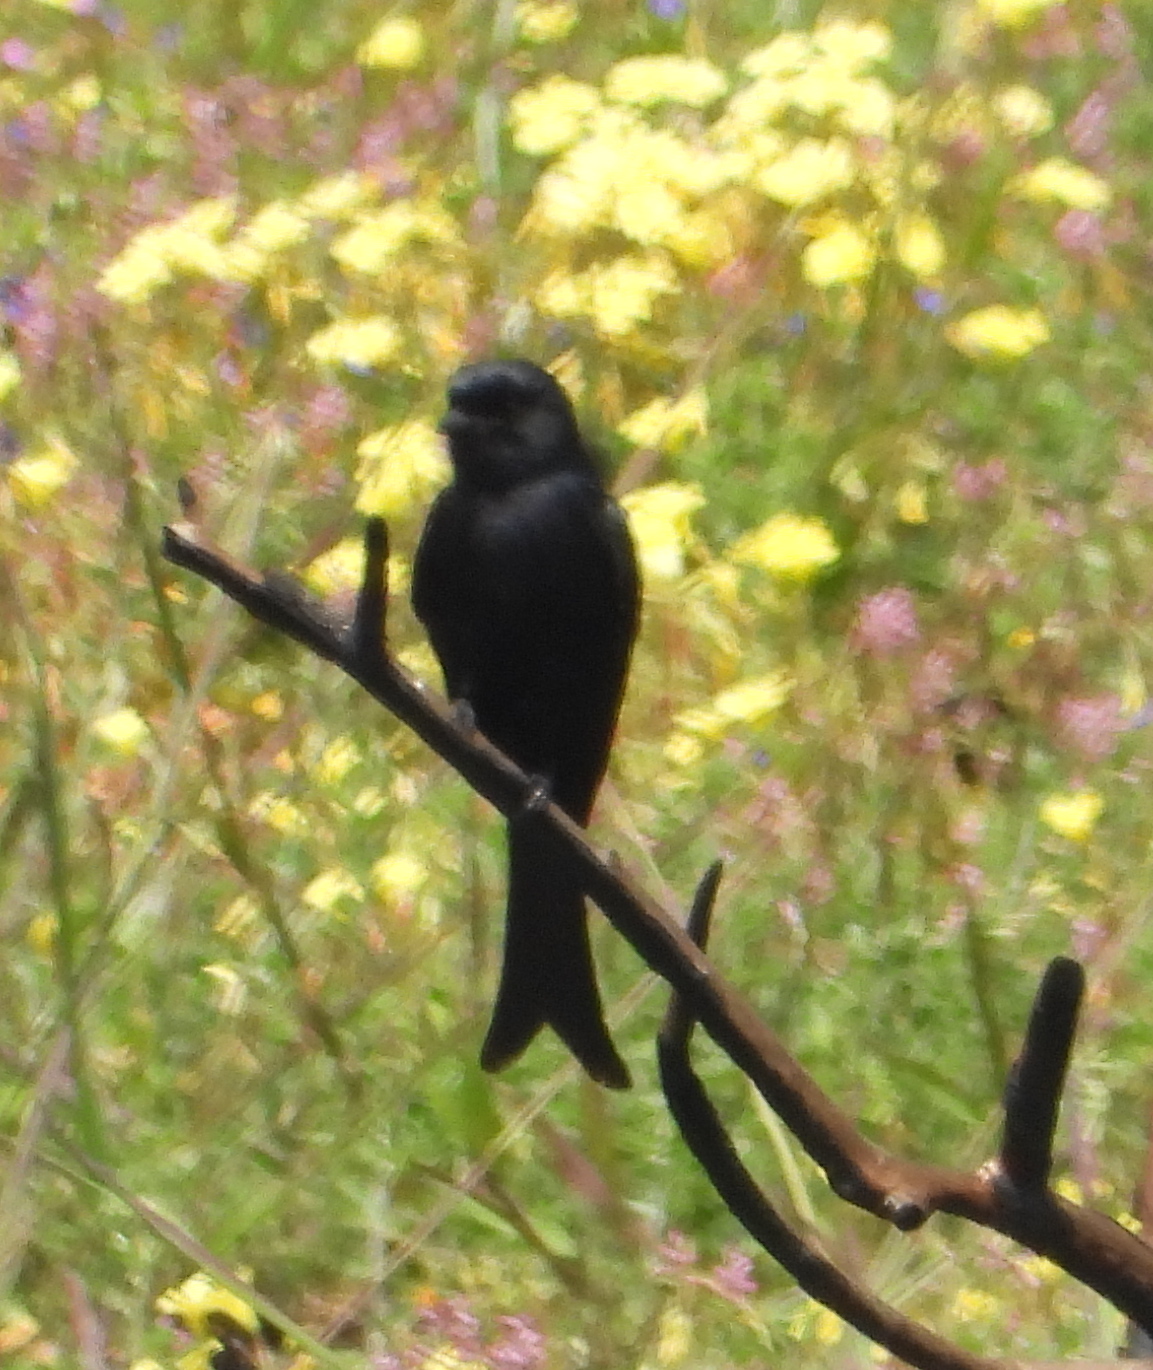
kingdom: Animalia
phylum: Chordata
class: Aves
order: Passeriformes
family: Dicruridae
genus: Dicrurus
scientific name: Dicrurus adsimilis
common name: Fork-tailed drongo
